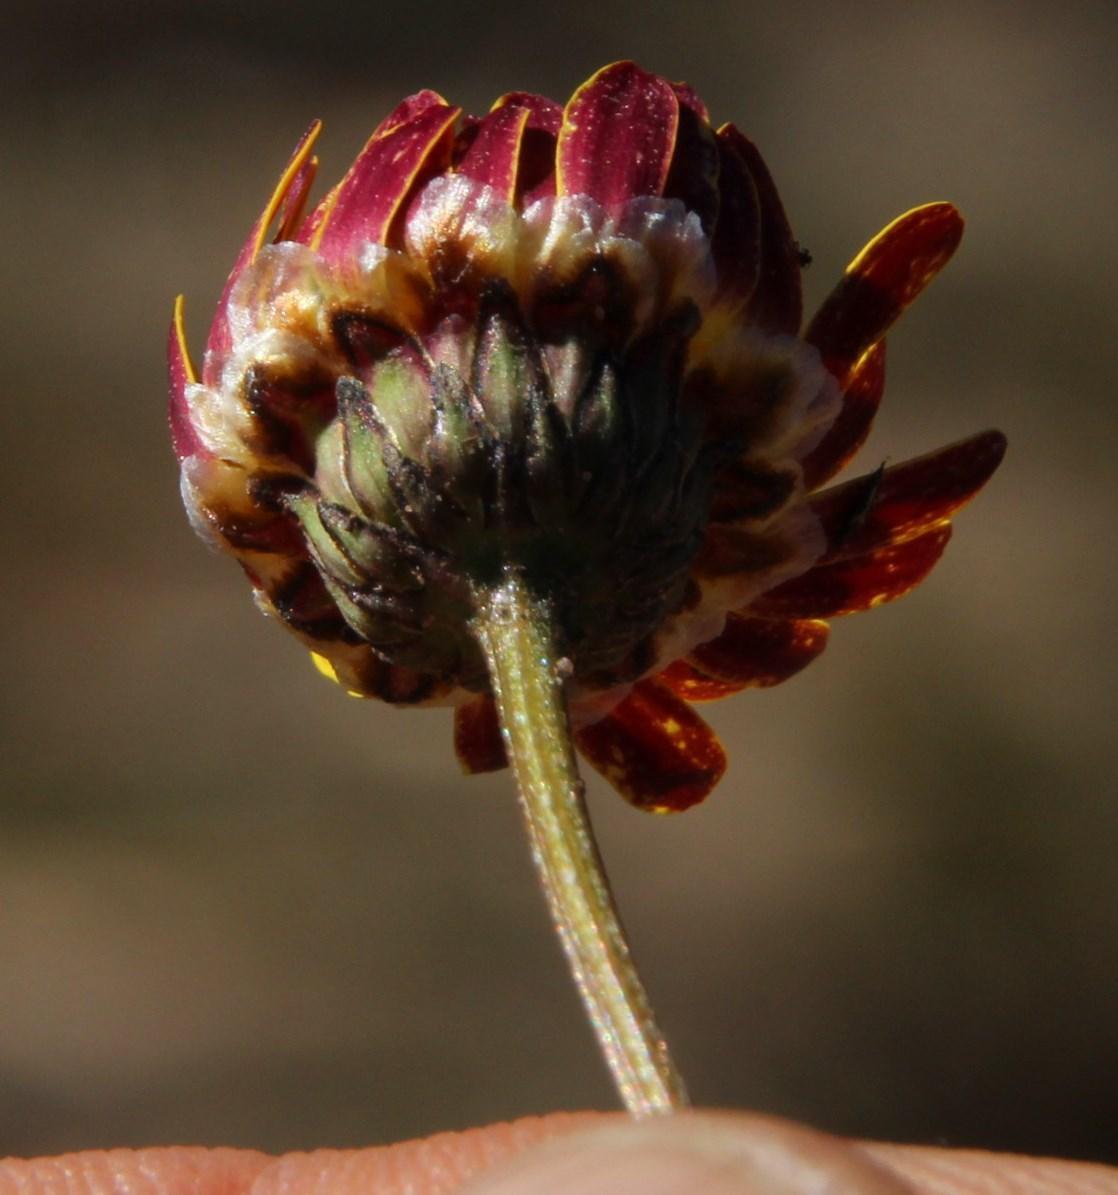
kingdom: Plantae
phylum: Tracheophyta
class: Magnoliopsida
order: Asterales
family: Asteraceae
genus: Ursinia
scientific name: Ursinia nudicaulis
